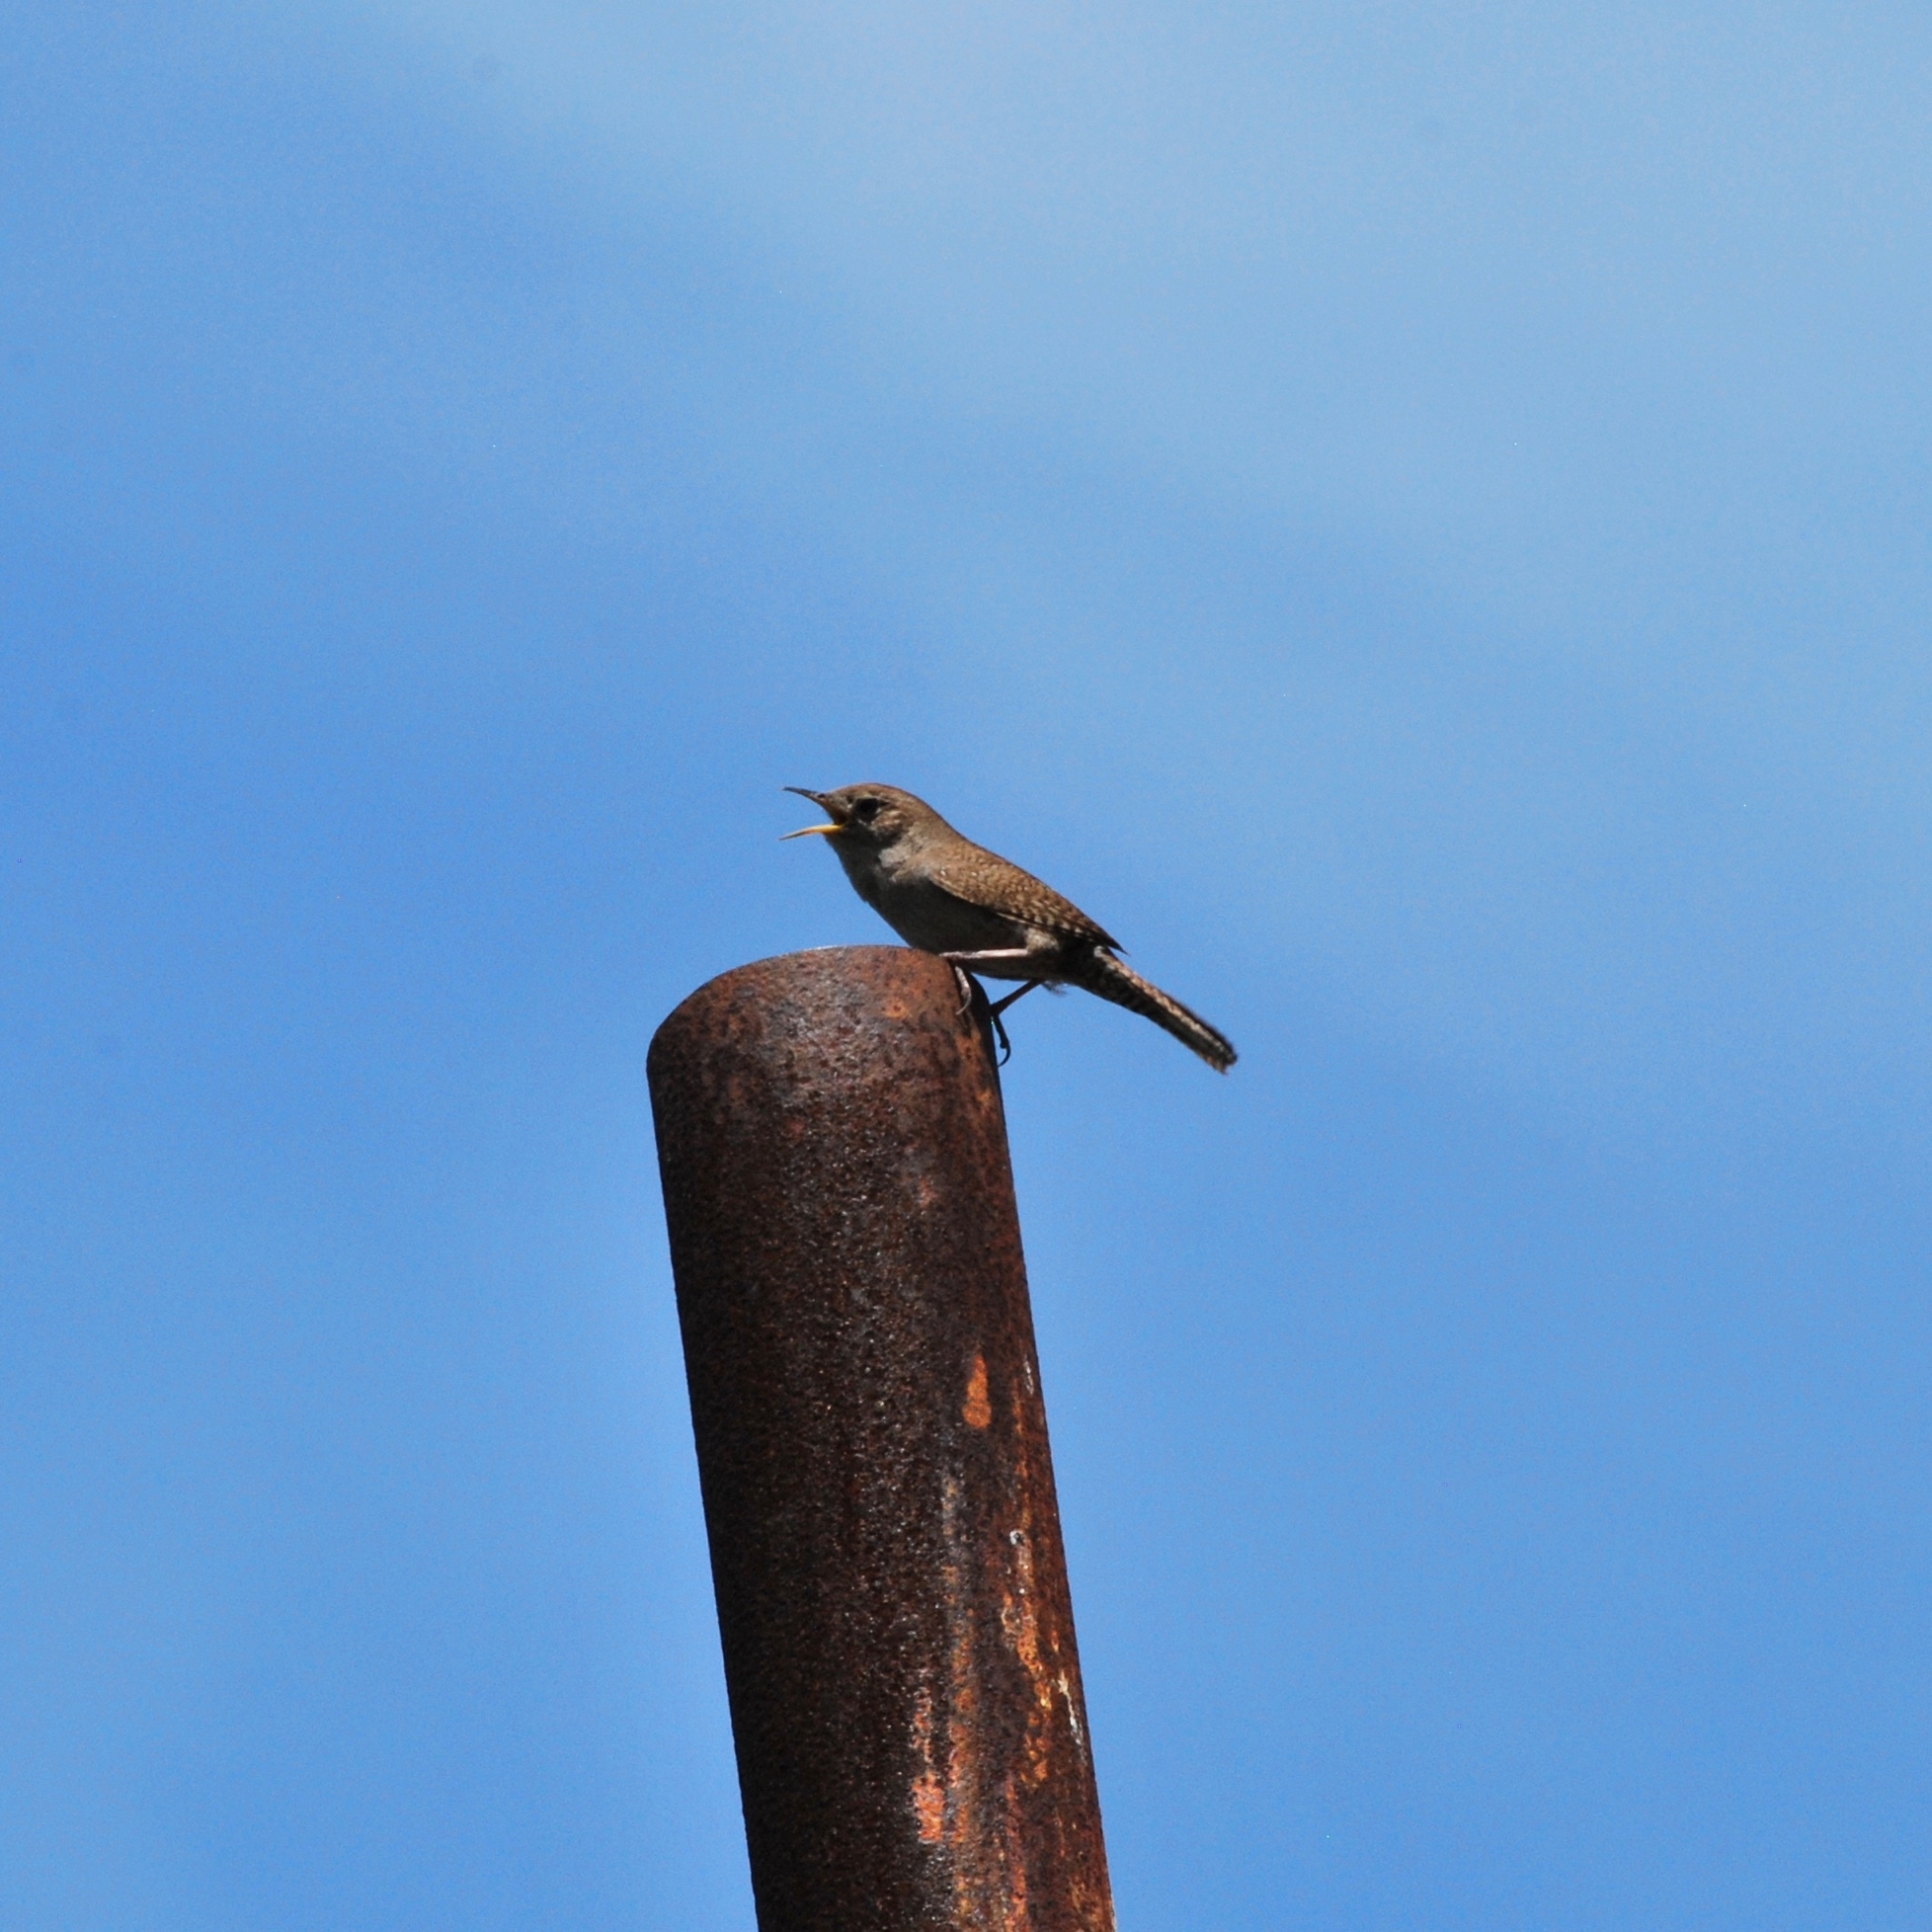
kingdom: Animalia
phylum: Chordata
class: Aves
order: Passeriformes
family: Troglodytidae
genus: Troglodytes
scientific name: Troglodytes aedon
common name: House wren
